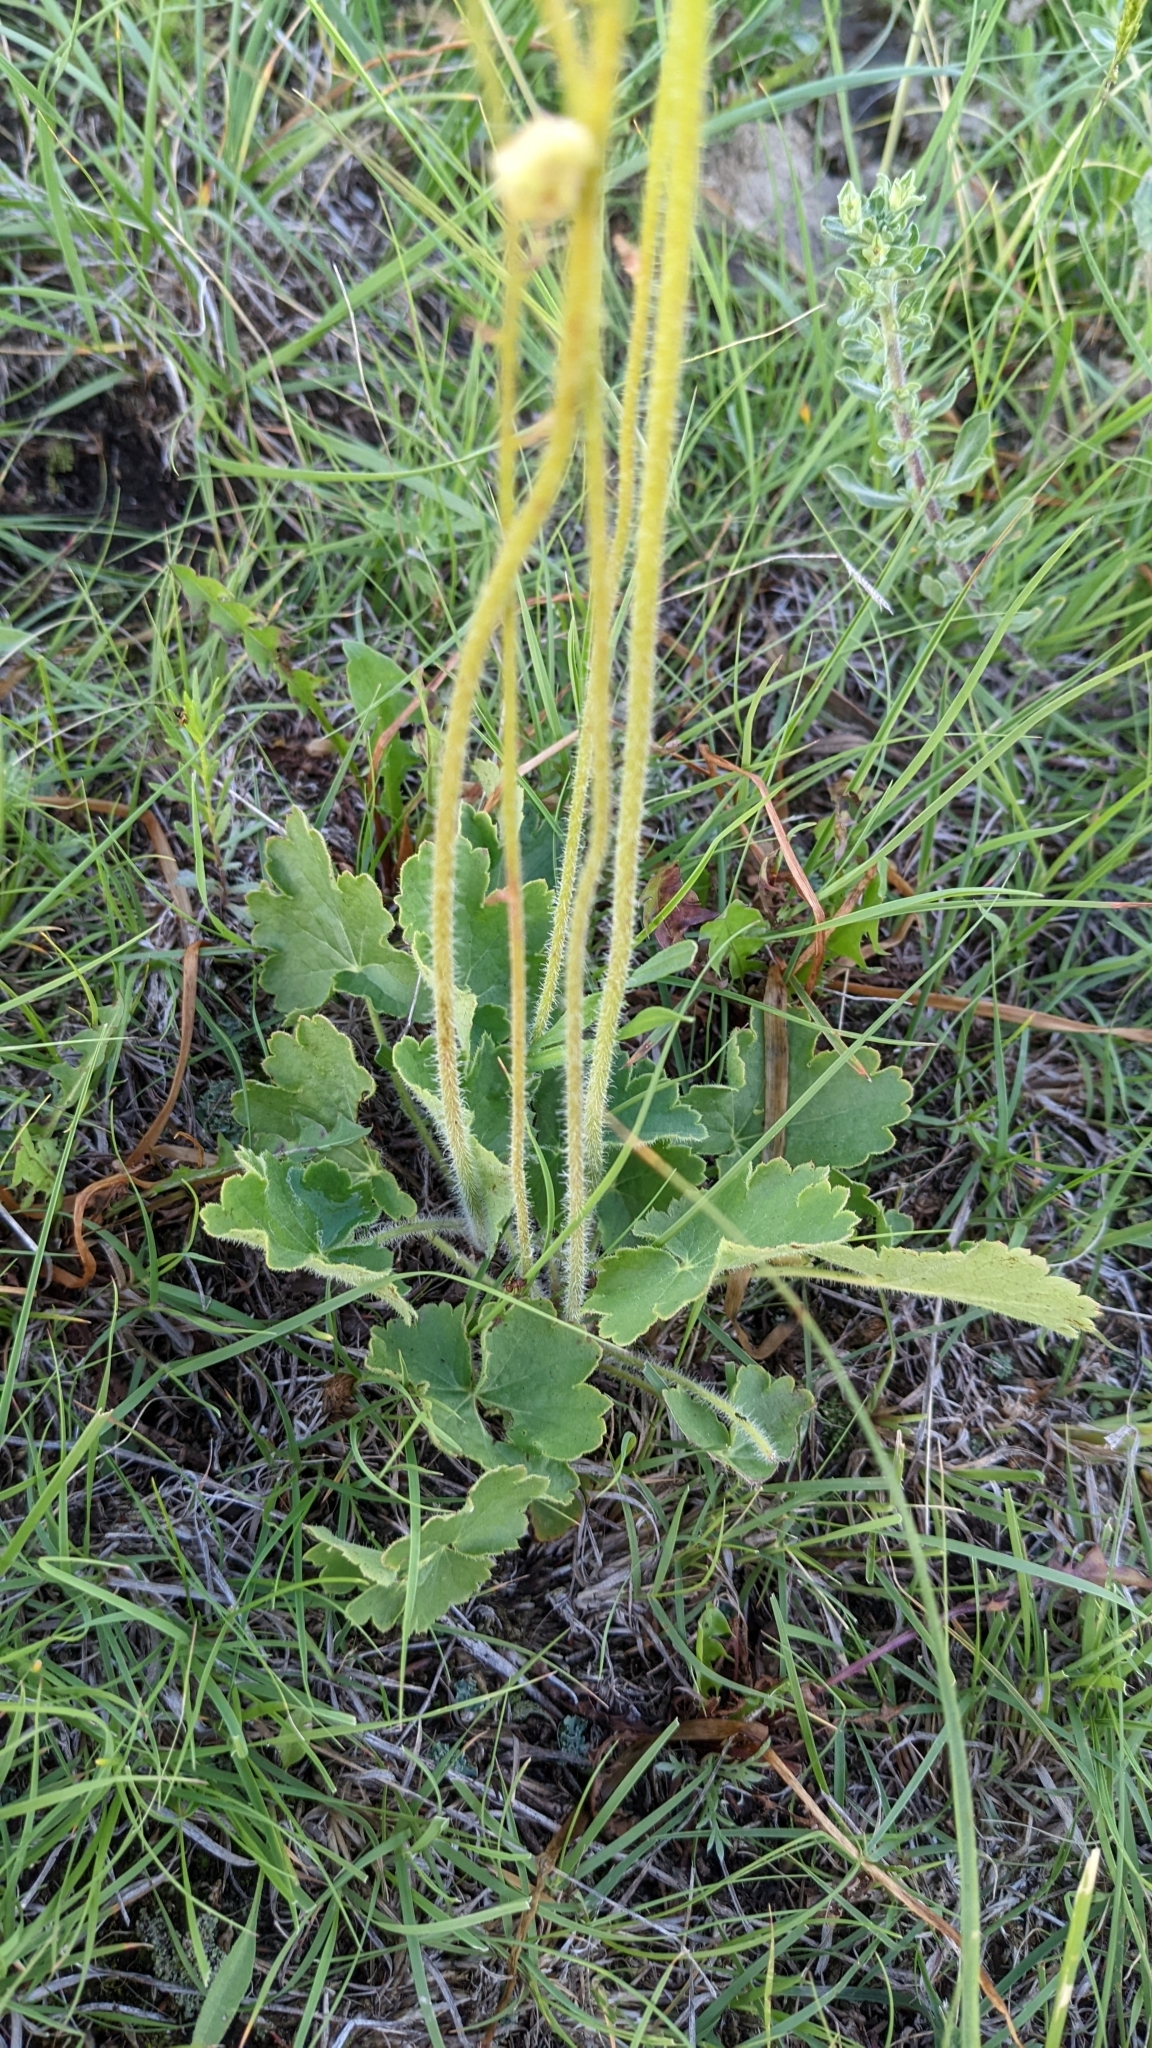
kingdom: Plantae
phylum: Tracheophyta
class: Magnoliopsida
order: Saxifragales
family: Saxifragaceae
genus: Heuchera
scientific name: Heuchera richardsonii
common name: Richardson's alumroot
